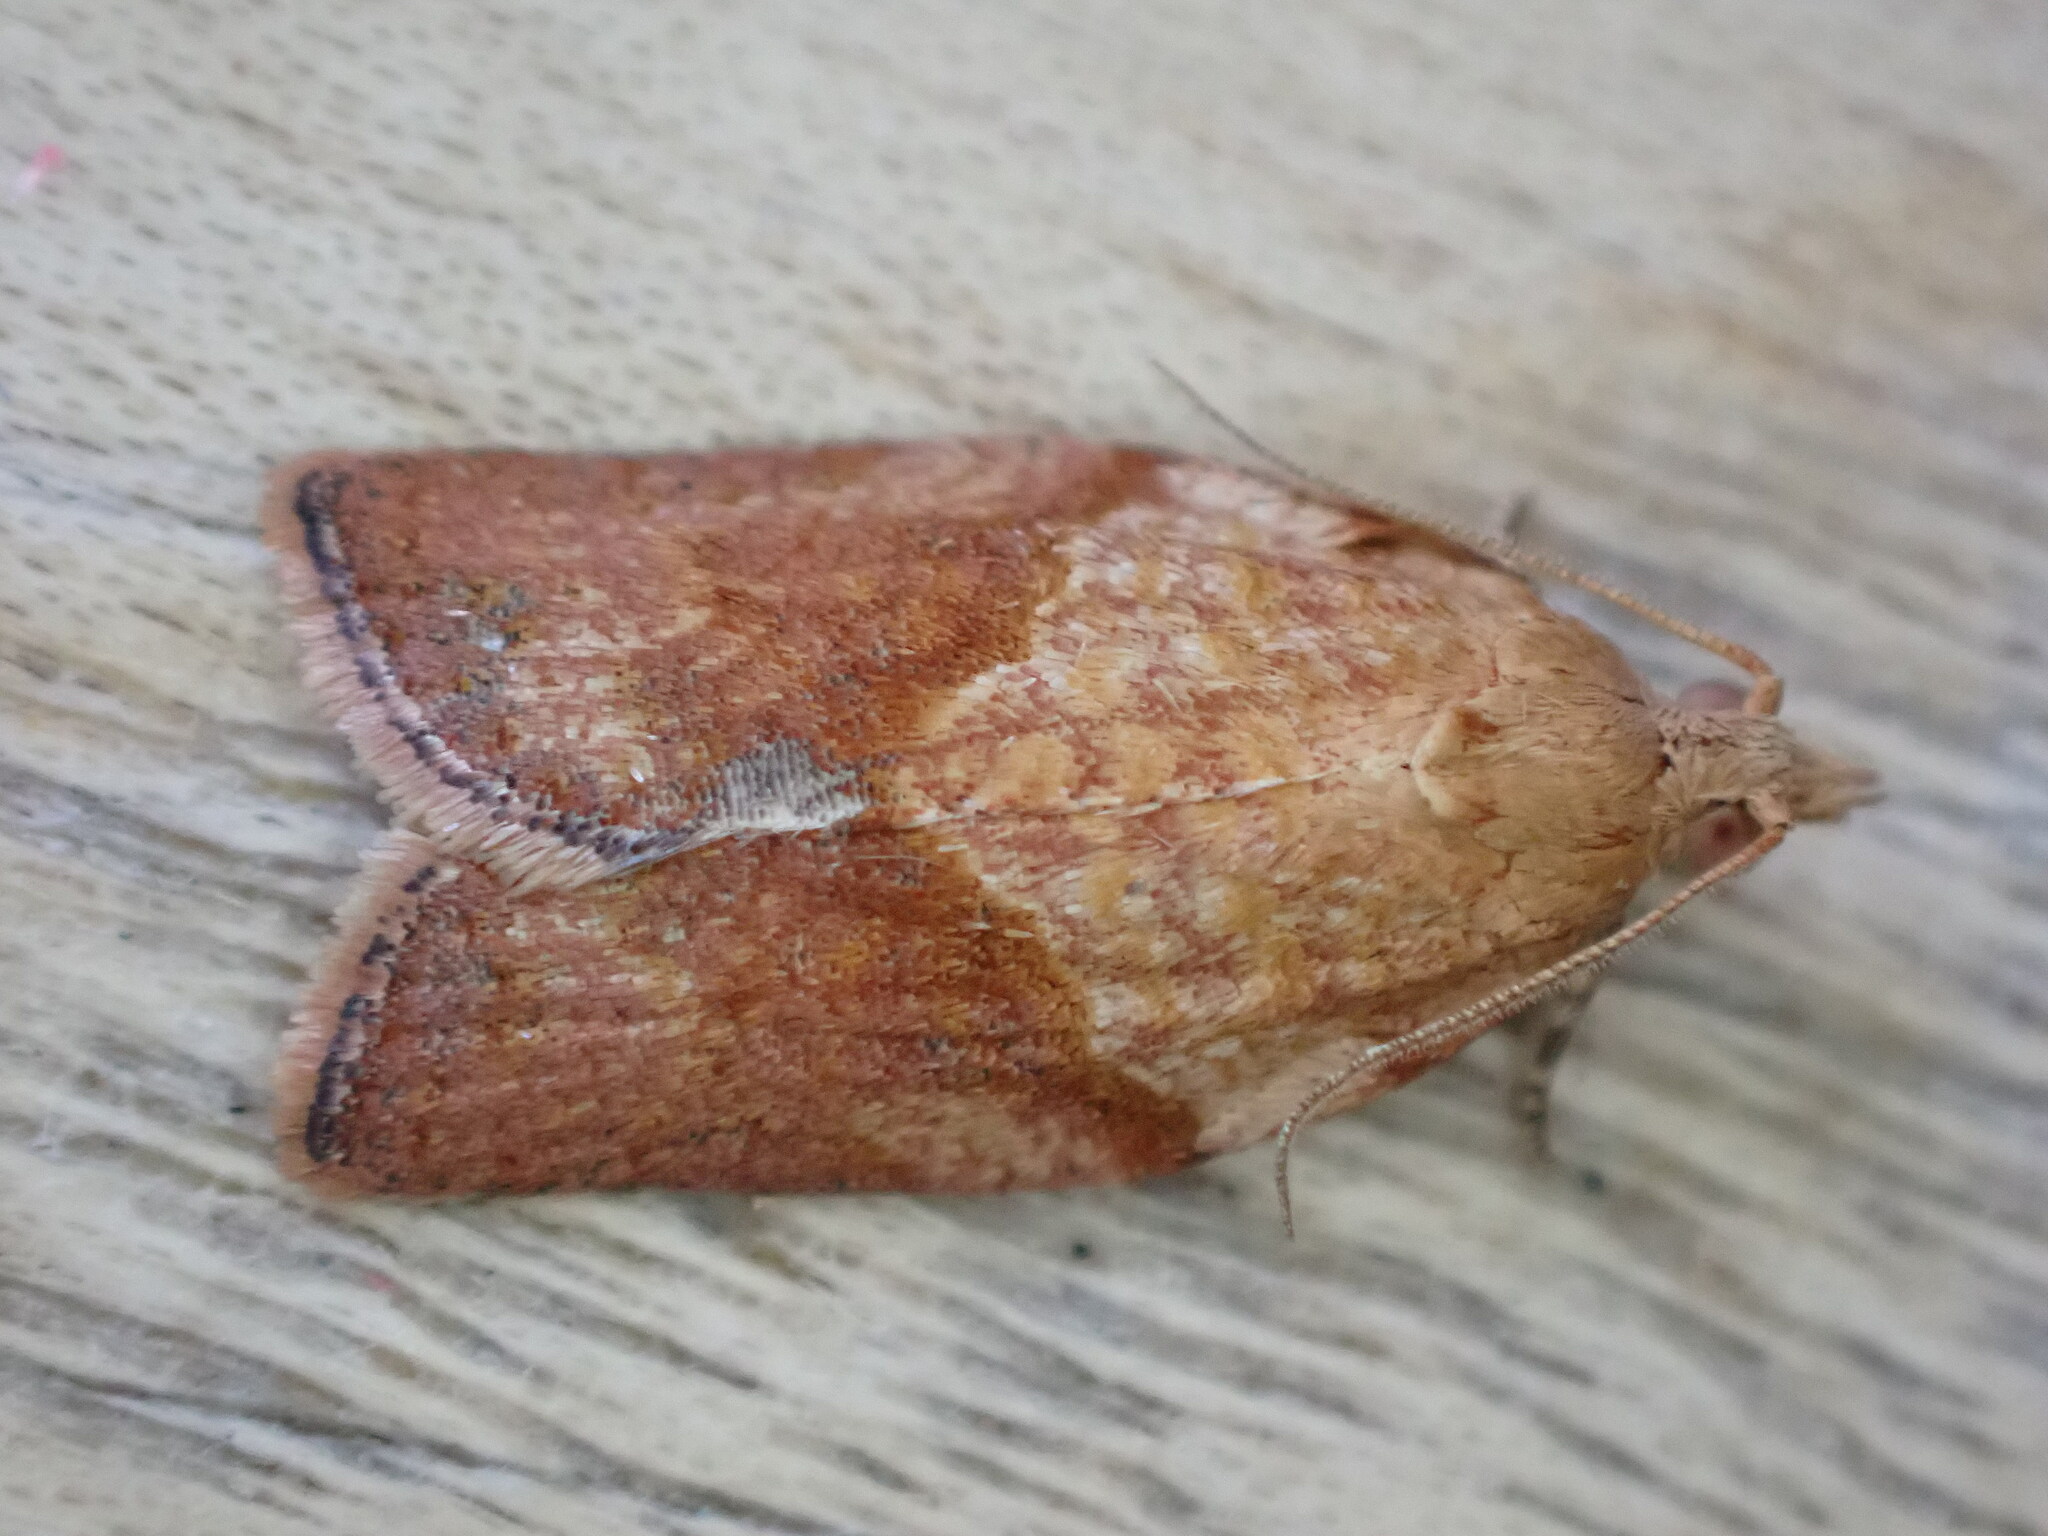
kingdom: Animalia
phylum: Arthropoda
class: Insecta
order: Lepidoptera
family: Tortricidae
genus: Epiphyas
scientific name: Epiphyas postvittana
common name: Light brown apple moth
